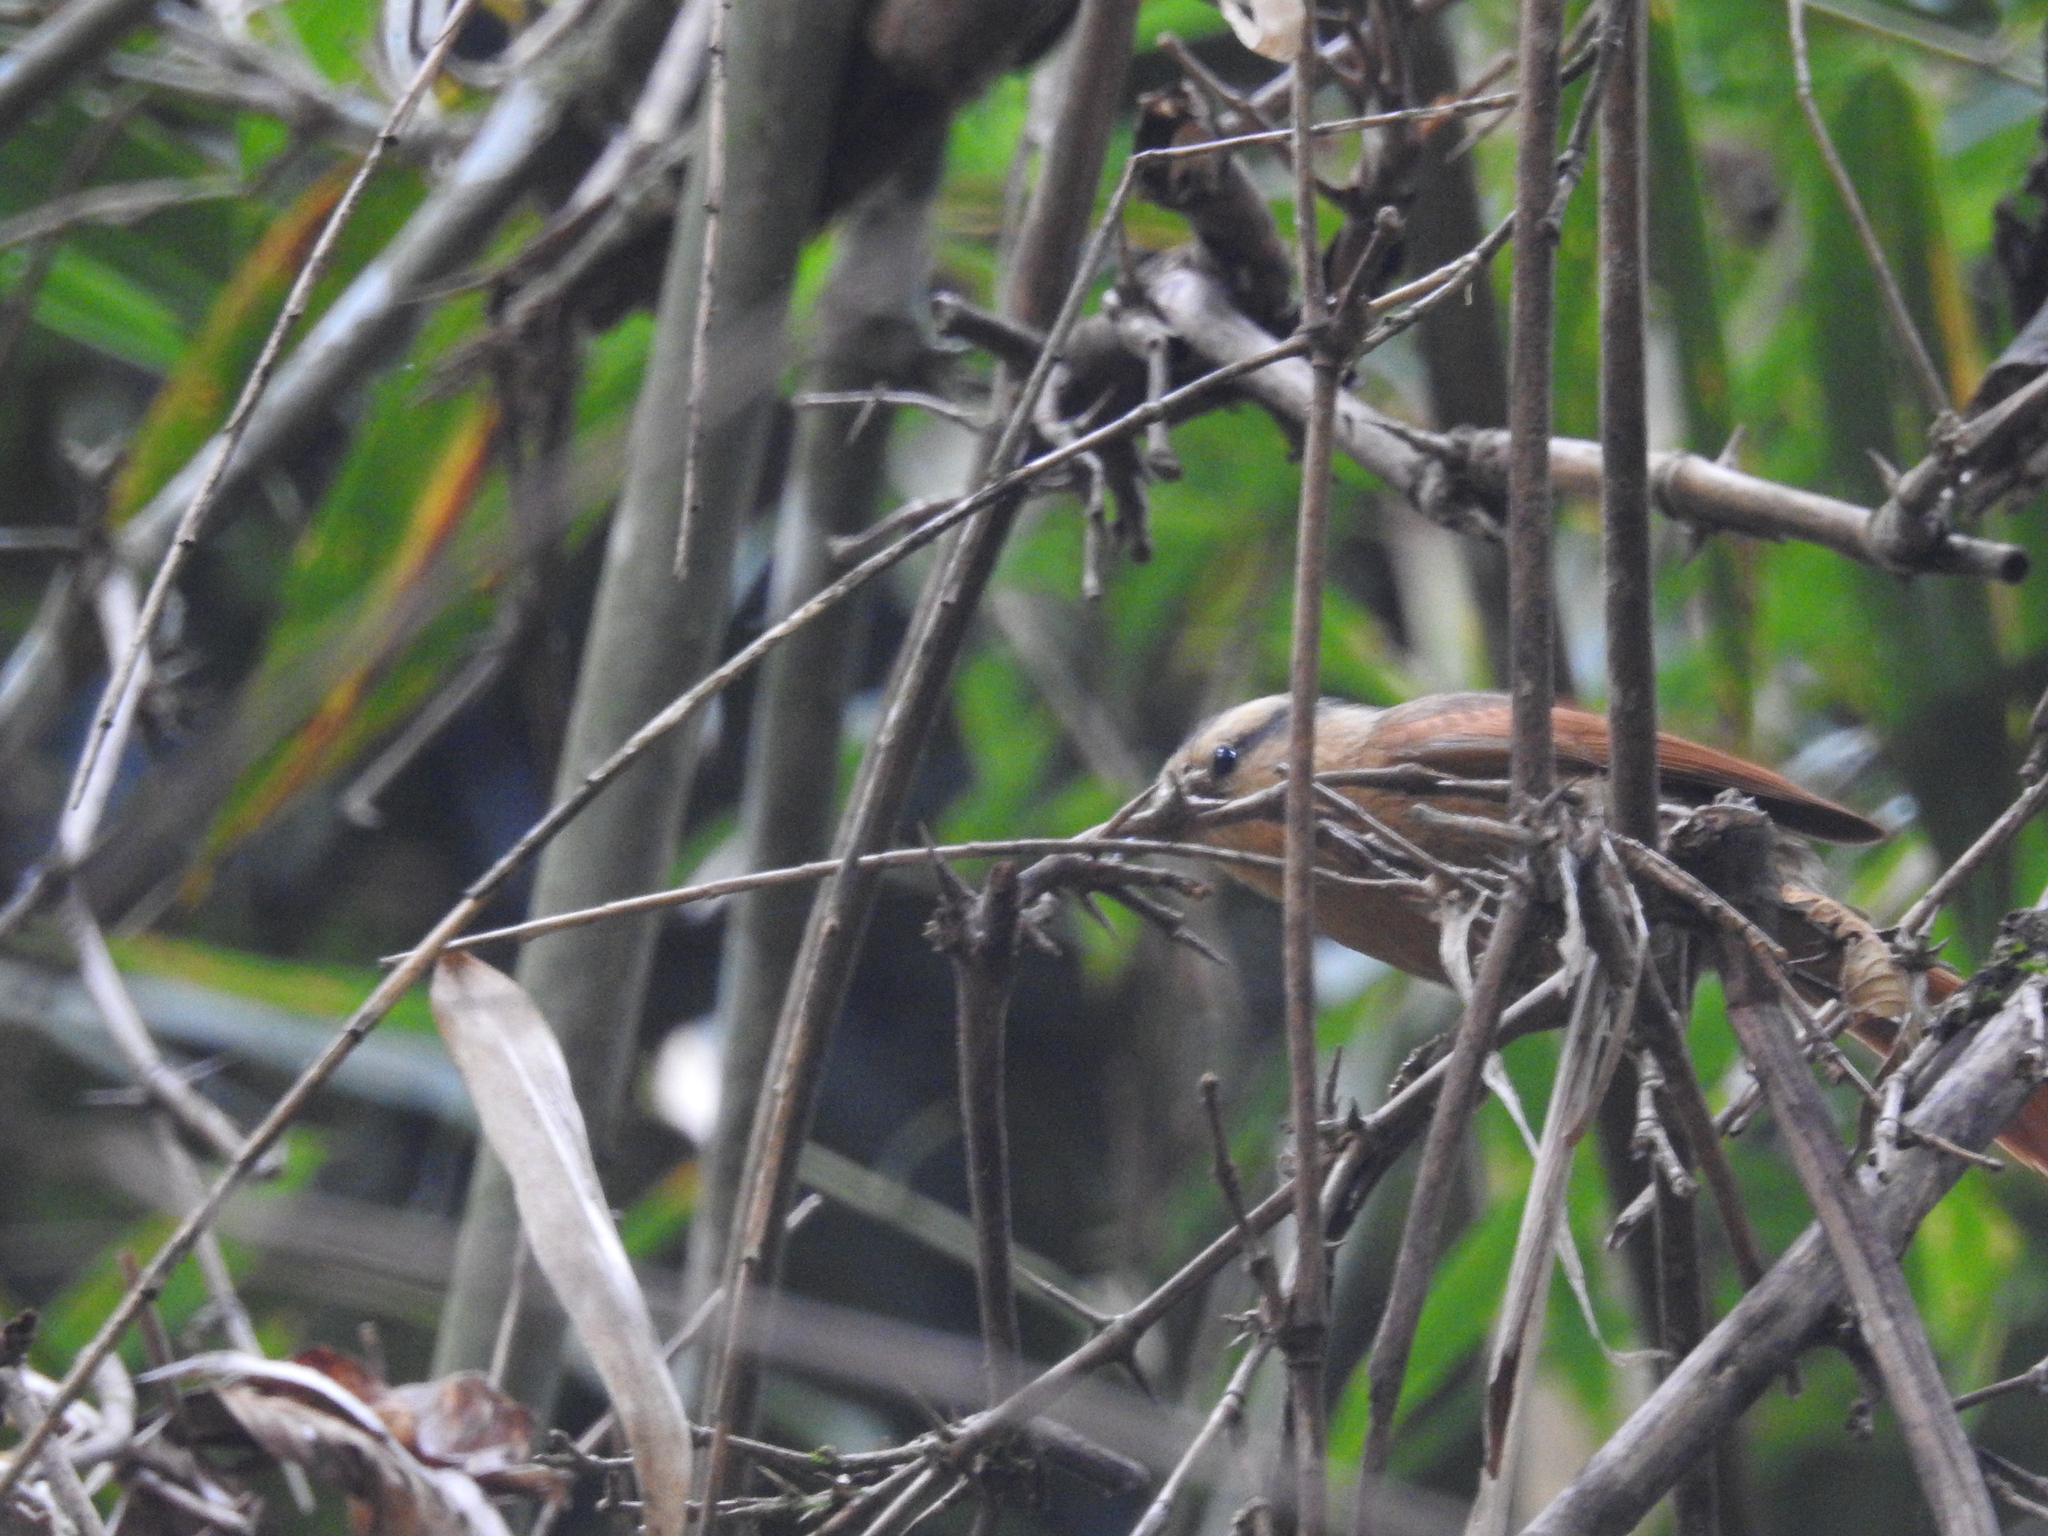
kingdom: Animalia
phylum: Chordata
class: Aves
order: Passeriformes
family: Furnariidae
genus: Philydor
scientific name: Philydor rufum
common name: Buff-fronted foliage-gleaner
